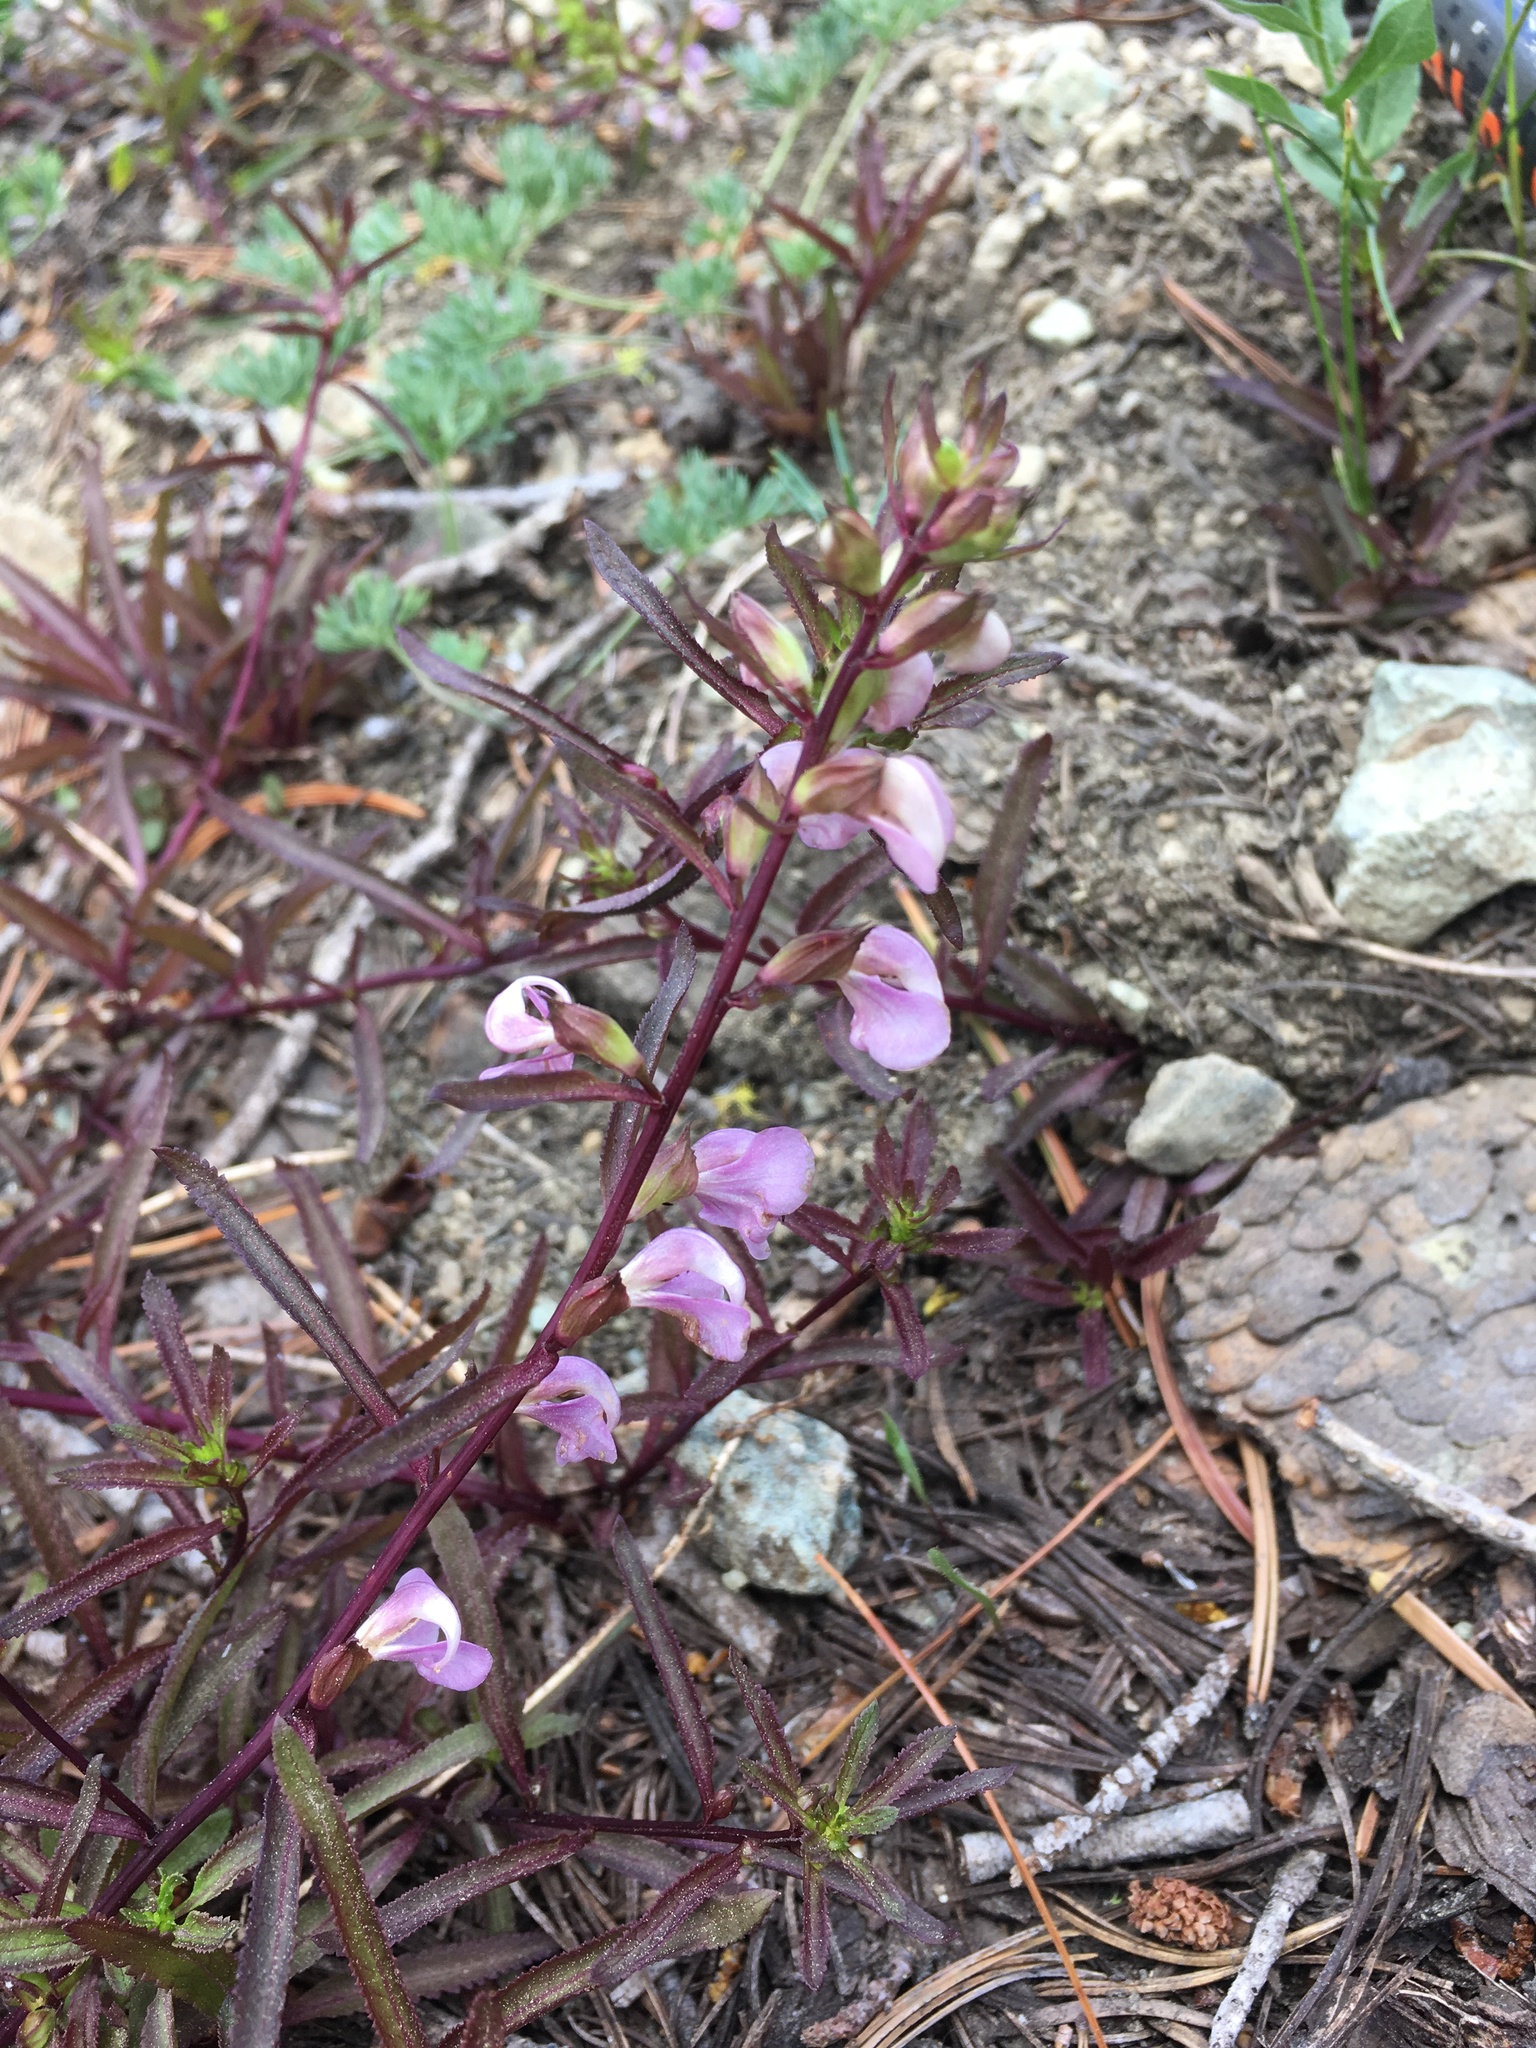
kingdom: Plantae
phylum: Tracheophyta
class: Magnoliopsida
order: Lamiales
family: Orobanchaceae
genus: Pedicularis
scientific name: Pedicularis racemosa
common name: Leafy lousewort
